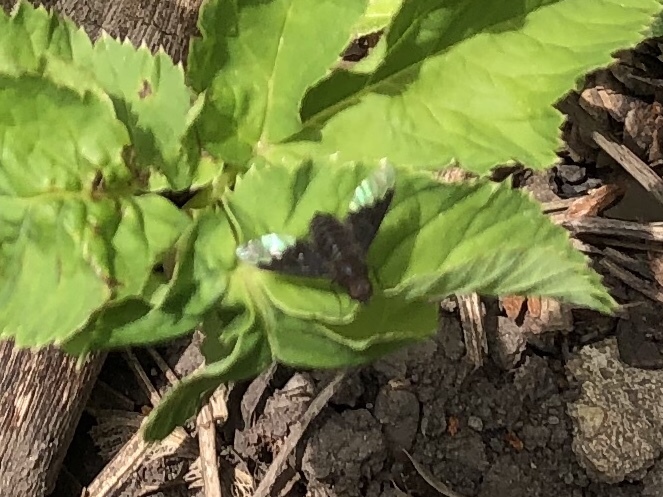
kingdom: Animalia
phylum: Arthropoda
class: Insecta
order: Diptera
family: Bombyliidae
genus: Hemipenthes
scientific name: Hemipenthes morio
